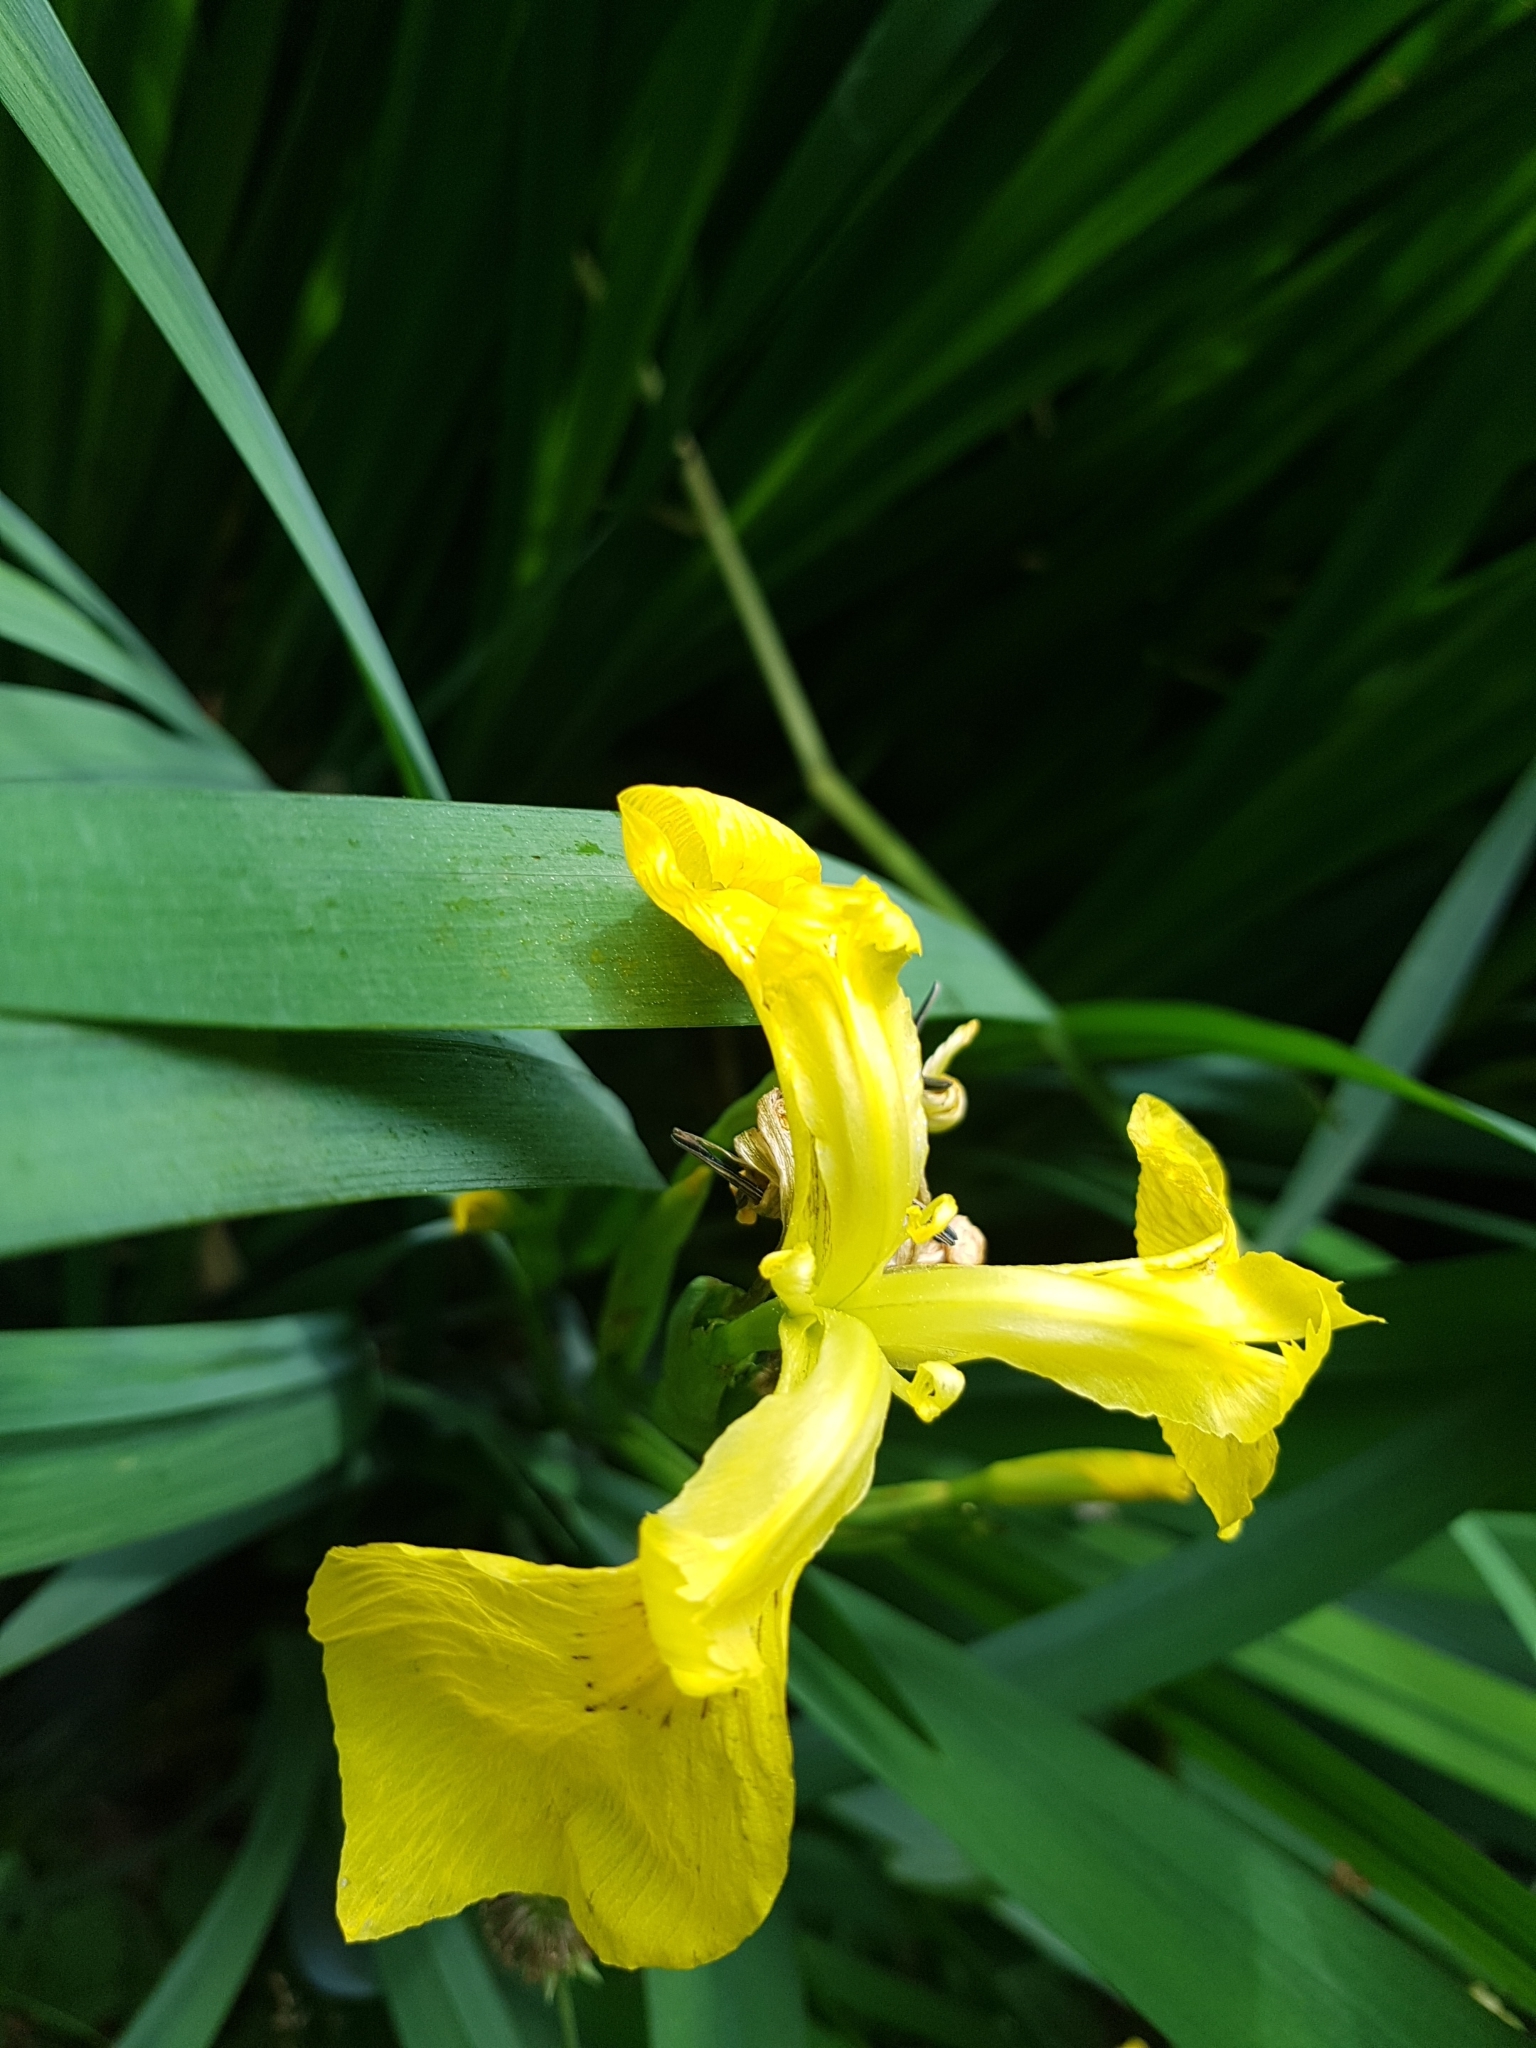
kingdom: Plantae
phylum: Tracheophyta
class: Liliopsida
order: Asparagales
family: Iridaceae
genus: Iris
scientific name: Iris pseudacorus
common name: Yellow flag
